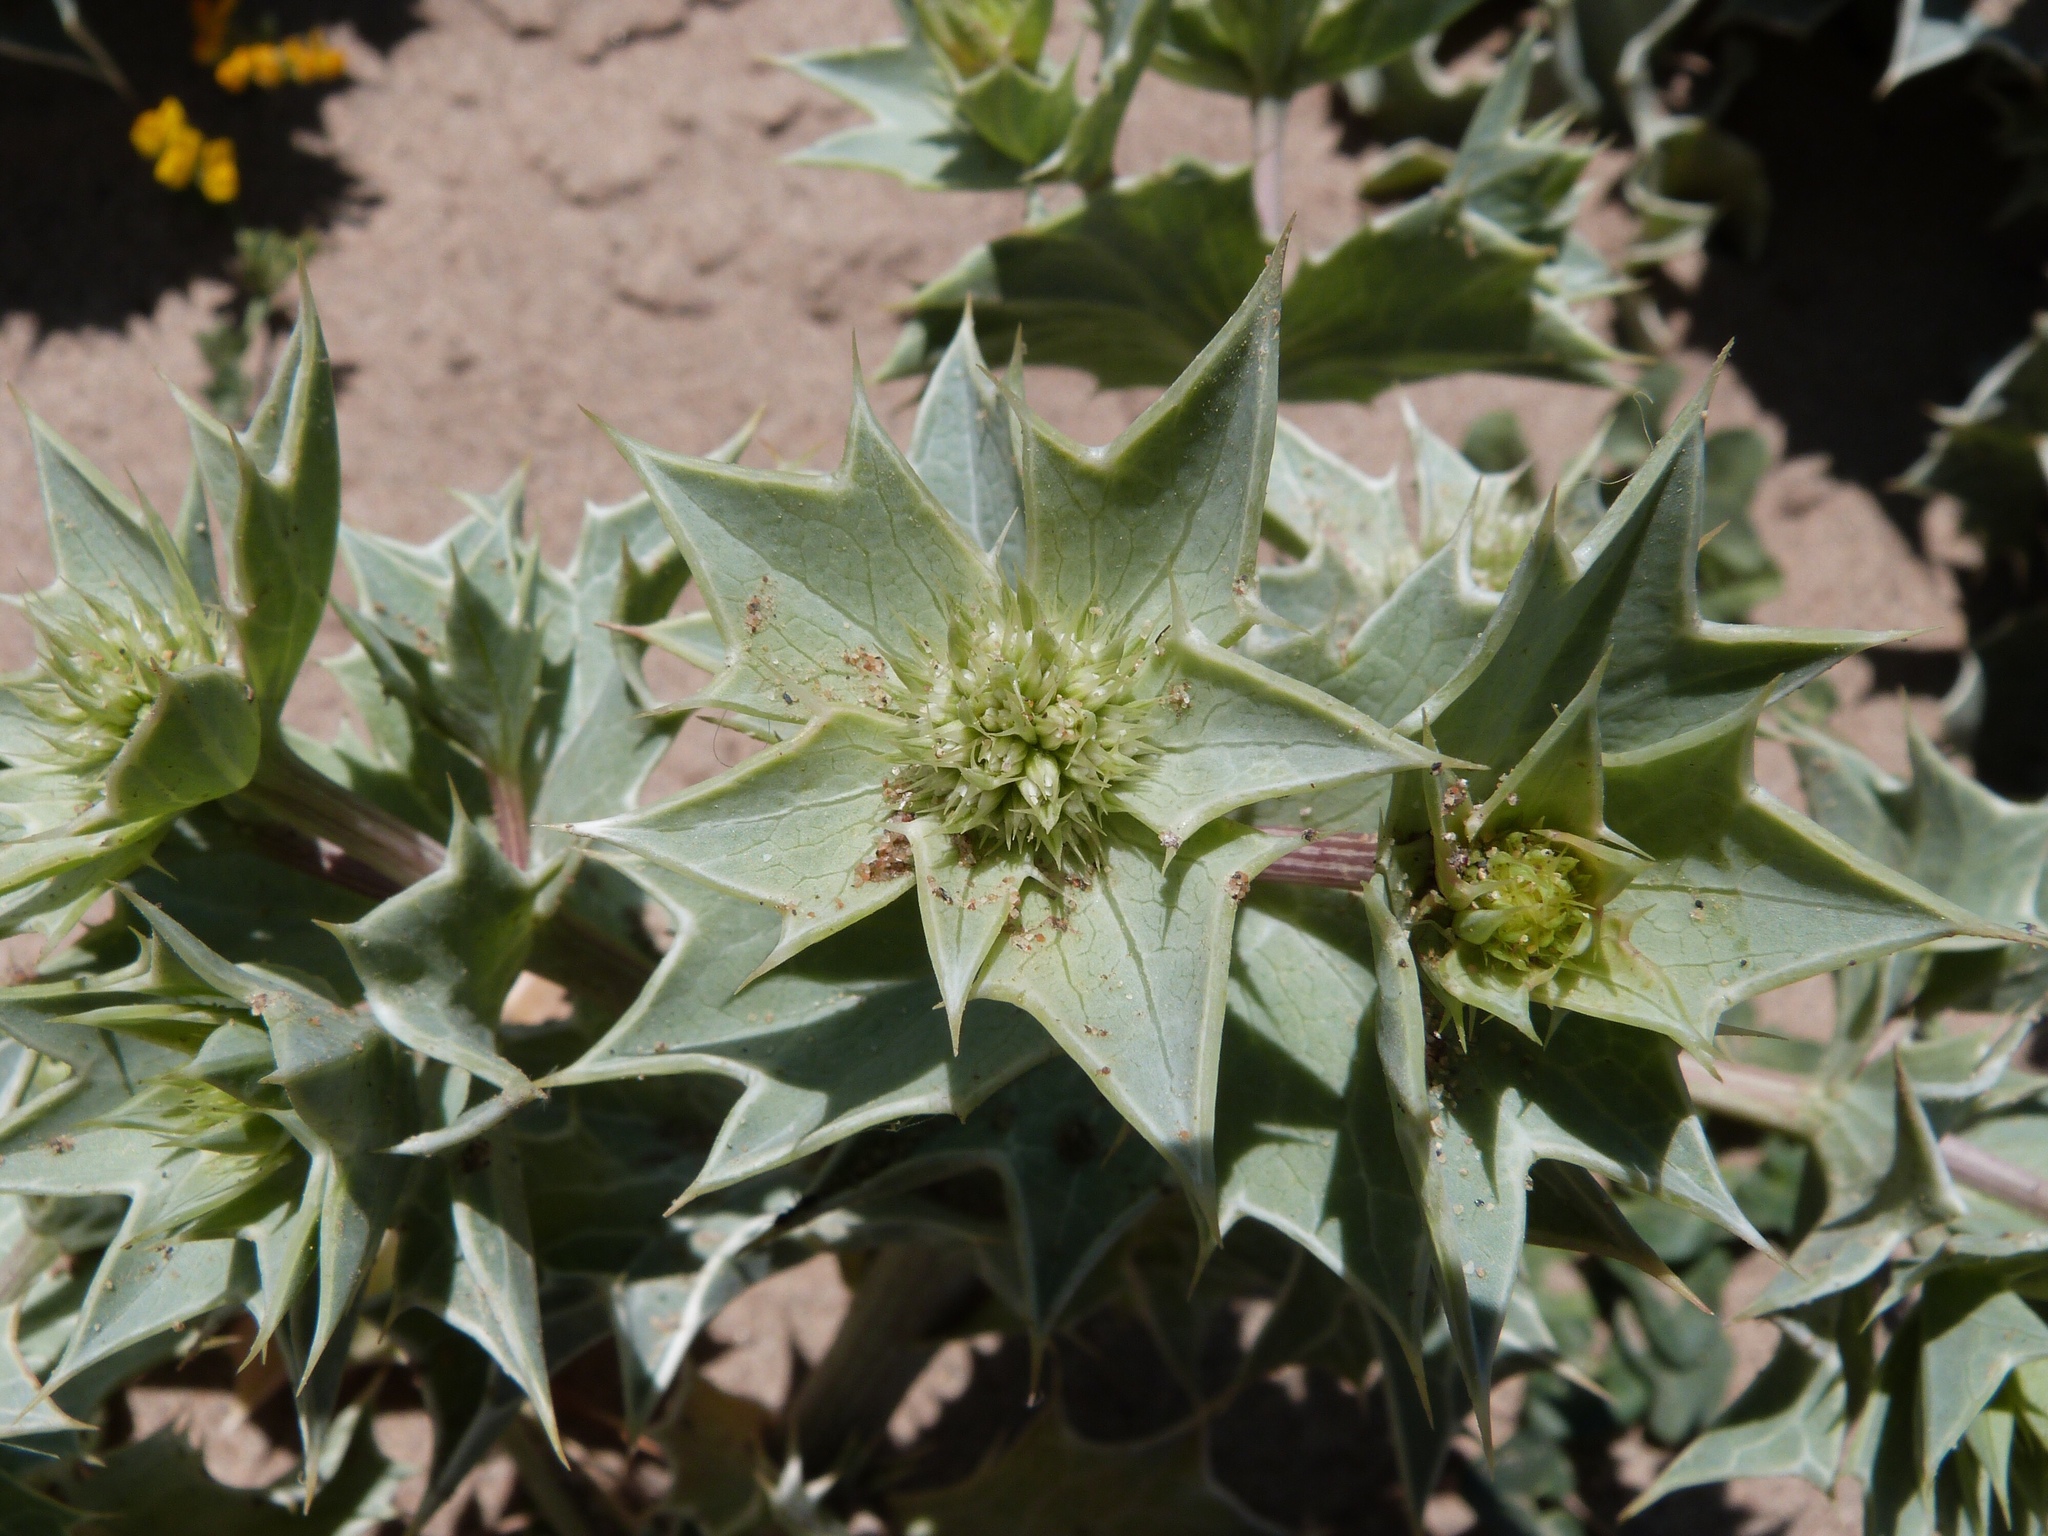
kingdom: Plantae
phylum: Tracheophyta
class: Magnoliopsida
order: Apiales
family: Apiaceae
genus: Eryngium
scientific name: Eryngium maritimum
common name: Sea-holly
